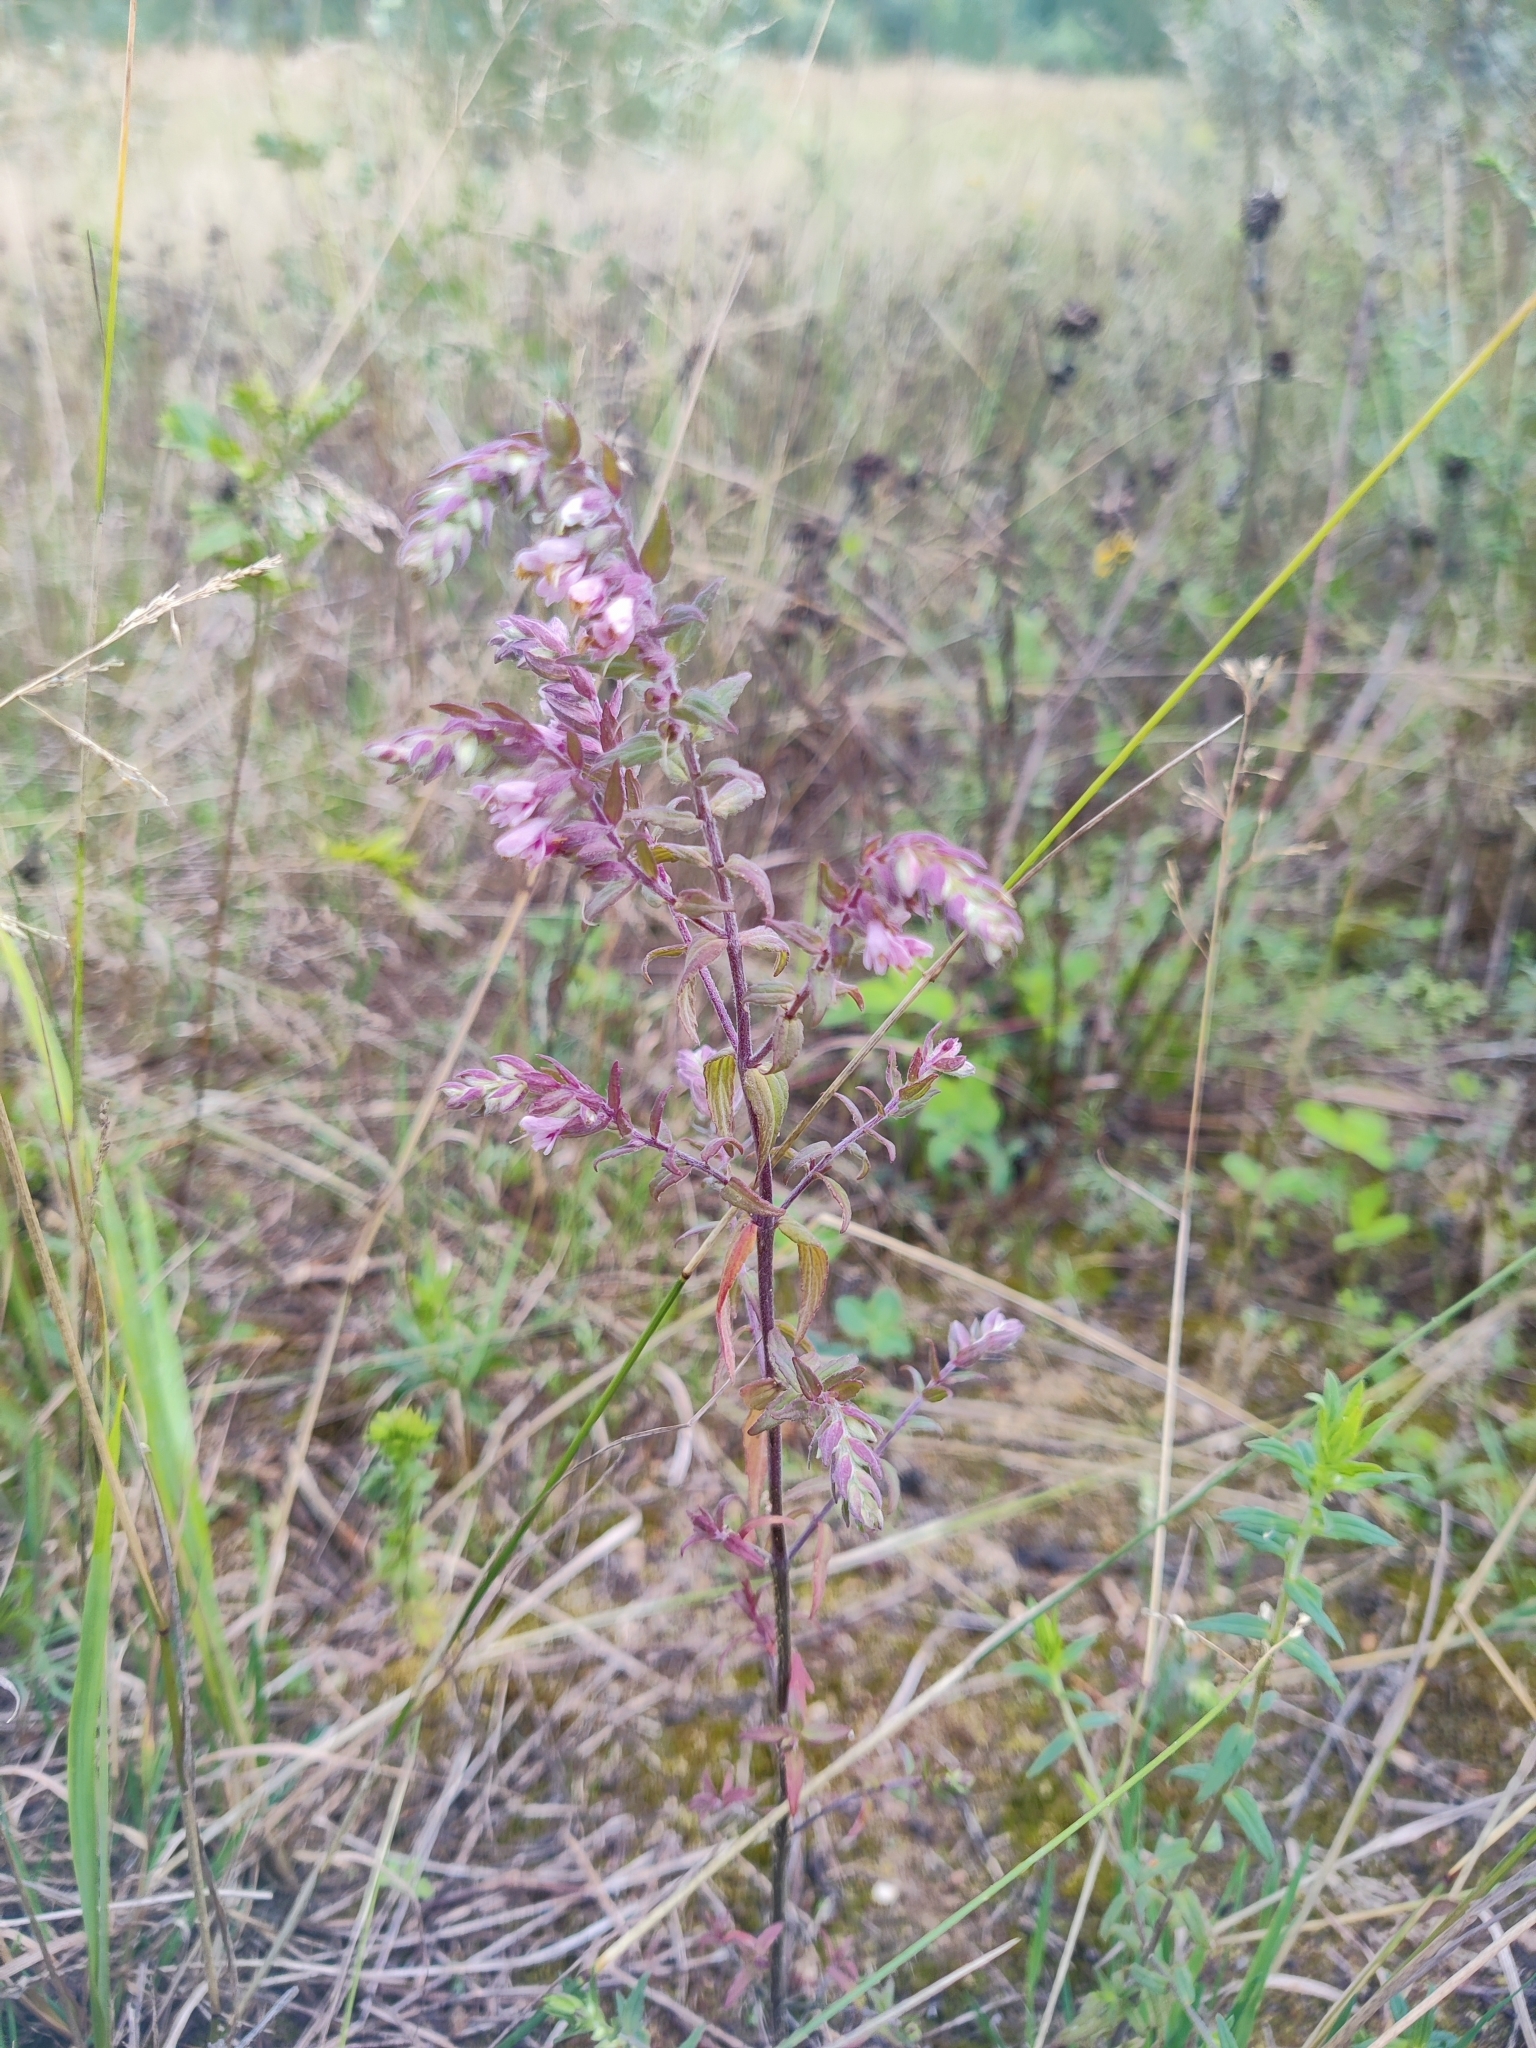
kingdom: Plantae
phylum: Tracheophyta
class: Magnoliopsida
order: Lamiales
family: Orobanchaceae
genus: Odontites
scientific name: Odontites vulgaris
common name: Broomrape
